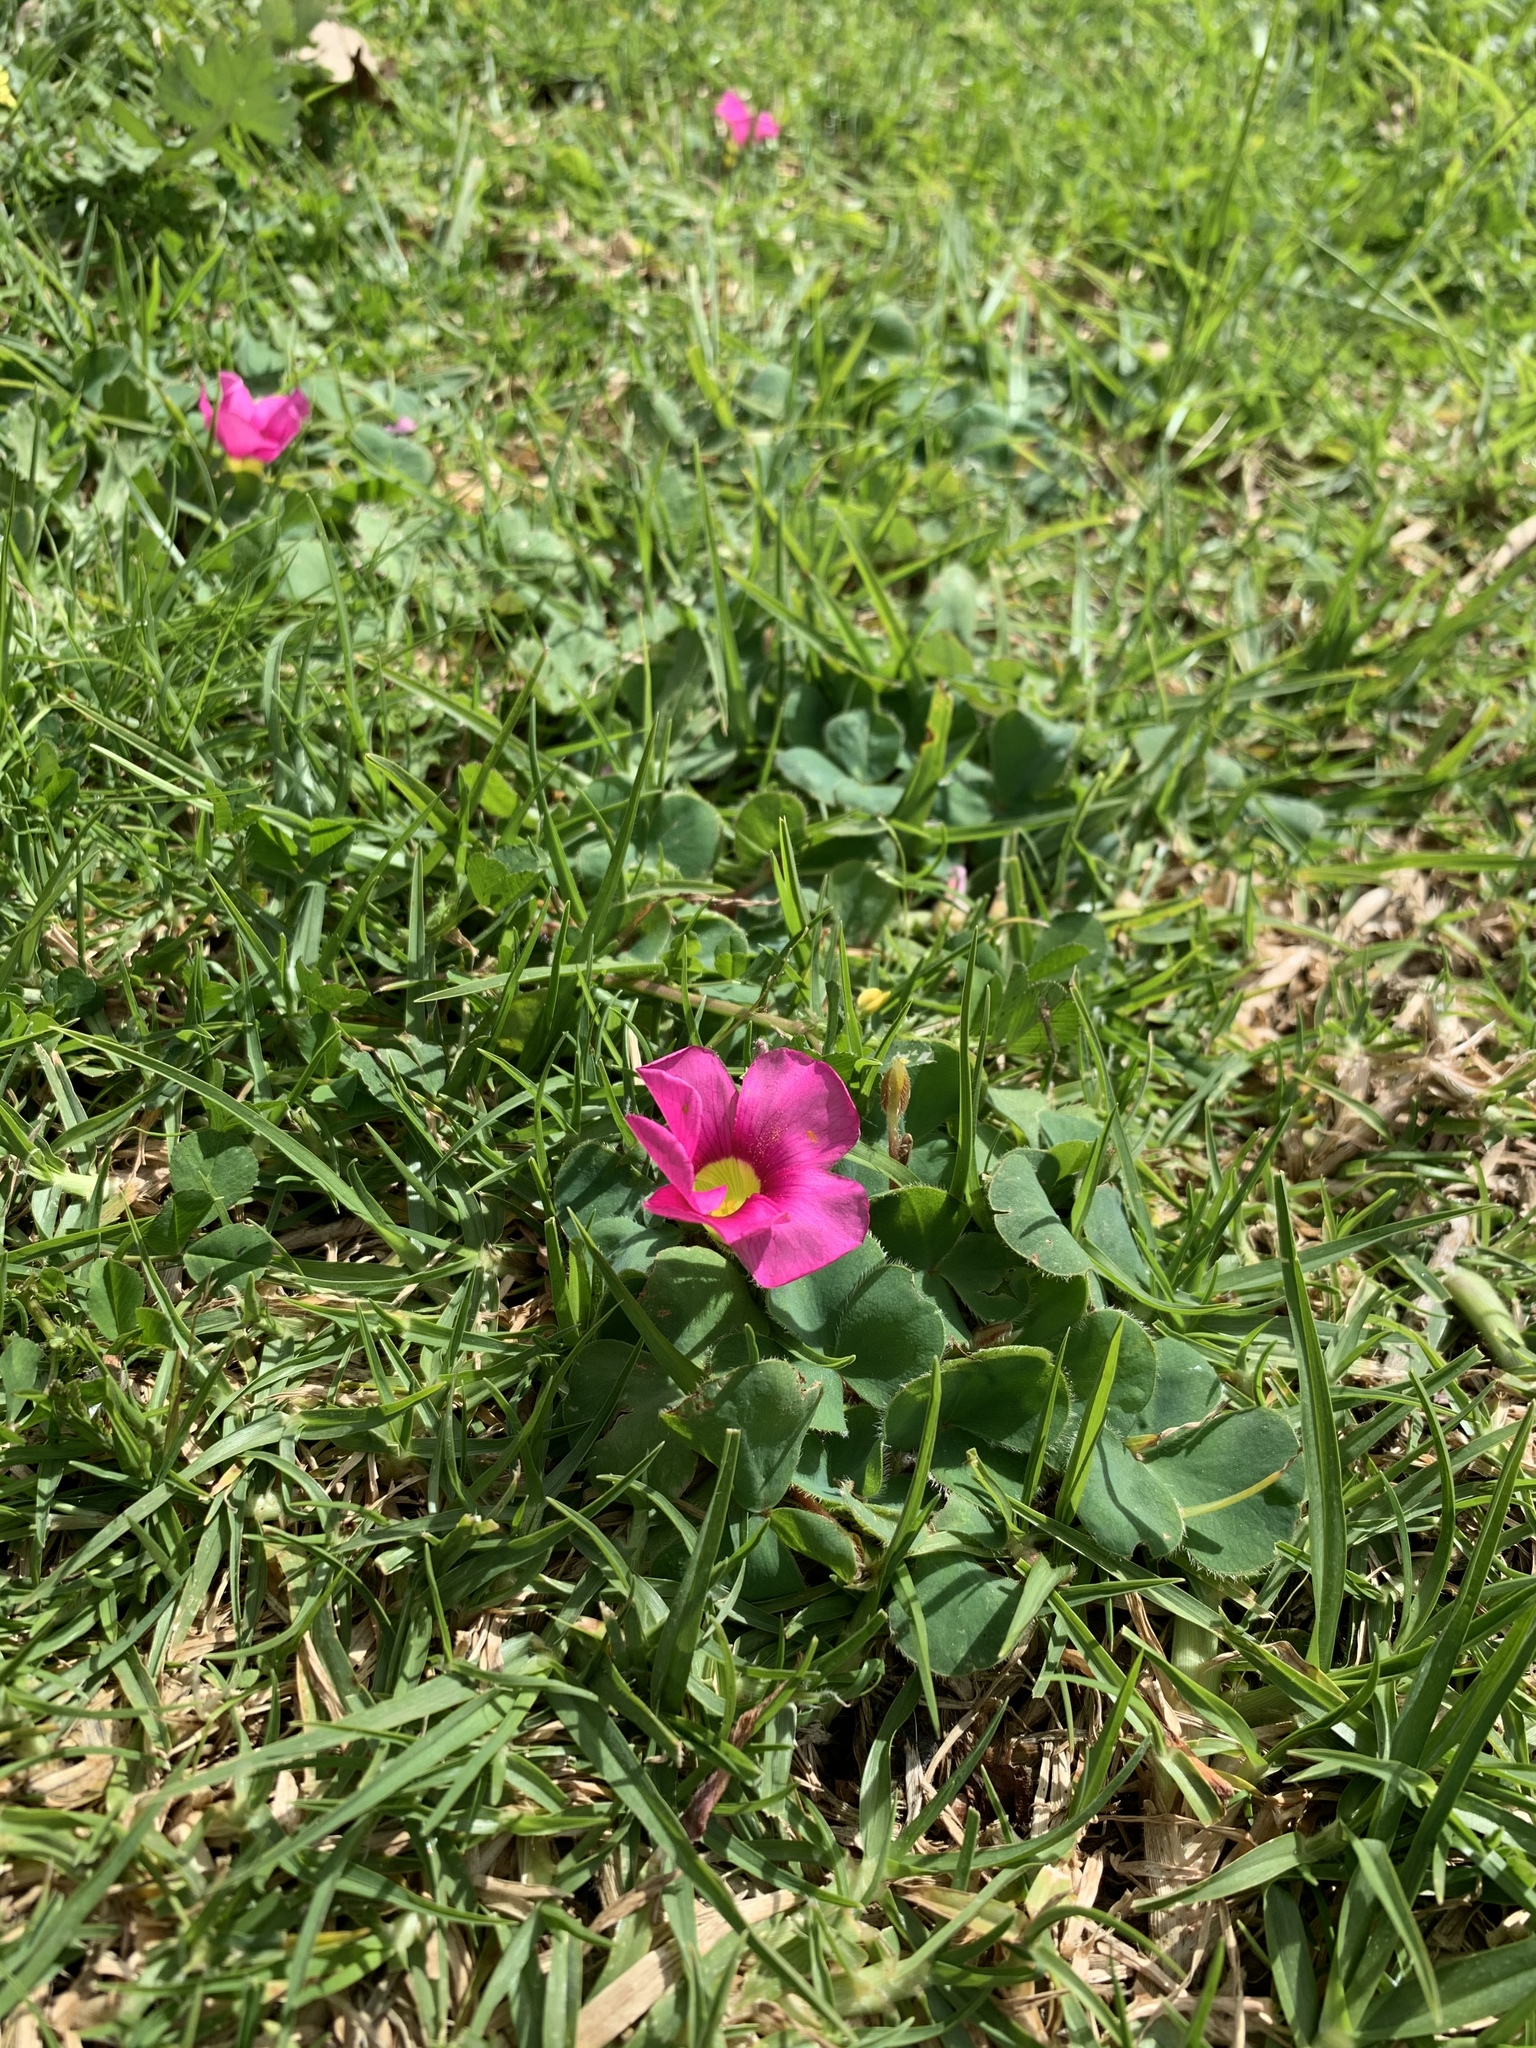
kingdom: Plantae
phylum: Tracheophyta
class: Magnoliopsida
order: Oxalidales
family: Oxalidaceae
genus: Oxalis
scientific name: Oxalis purpurea
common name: Purple woodsorrel
